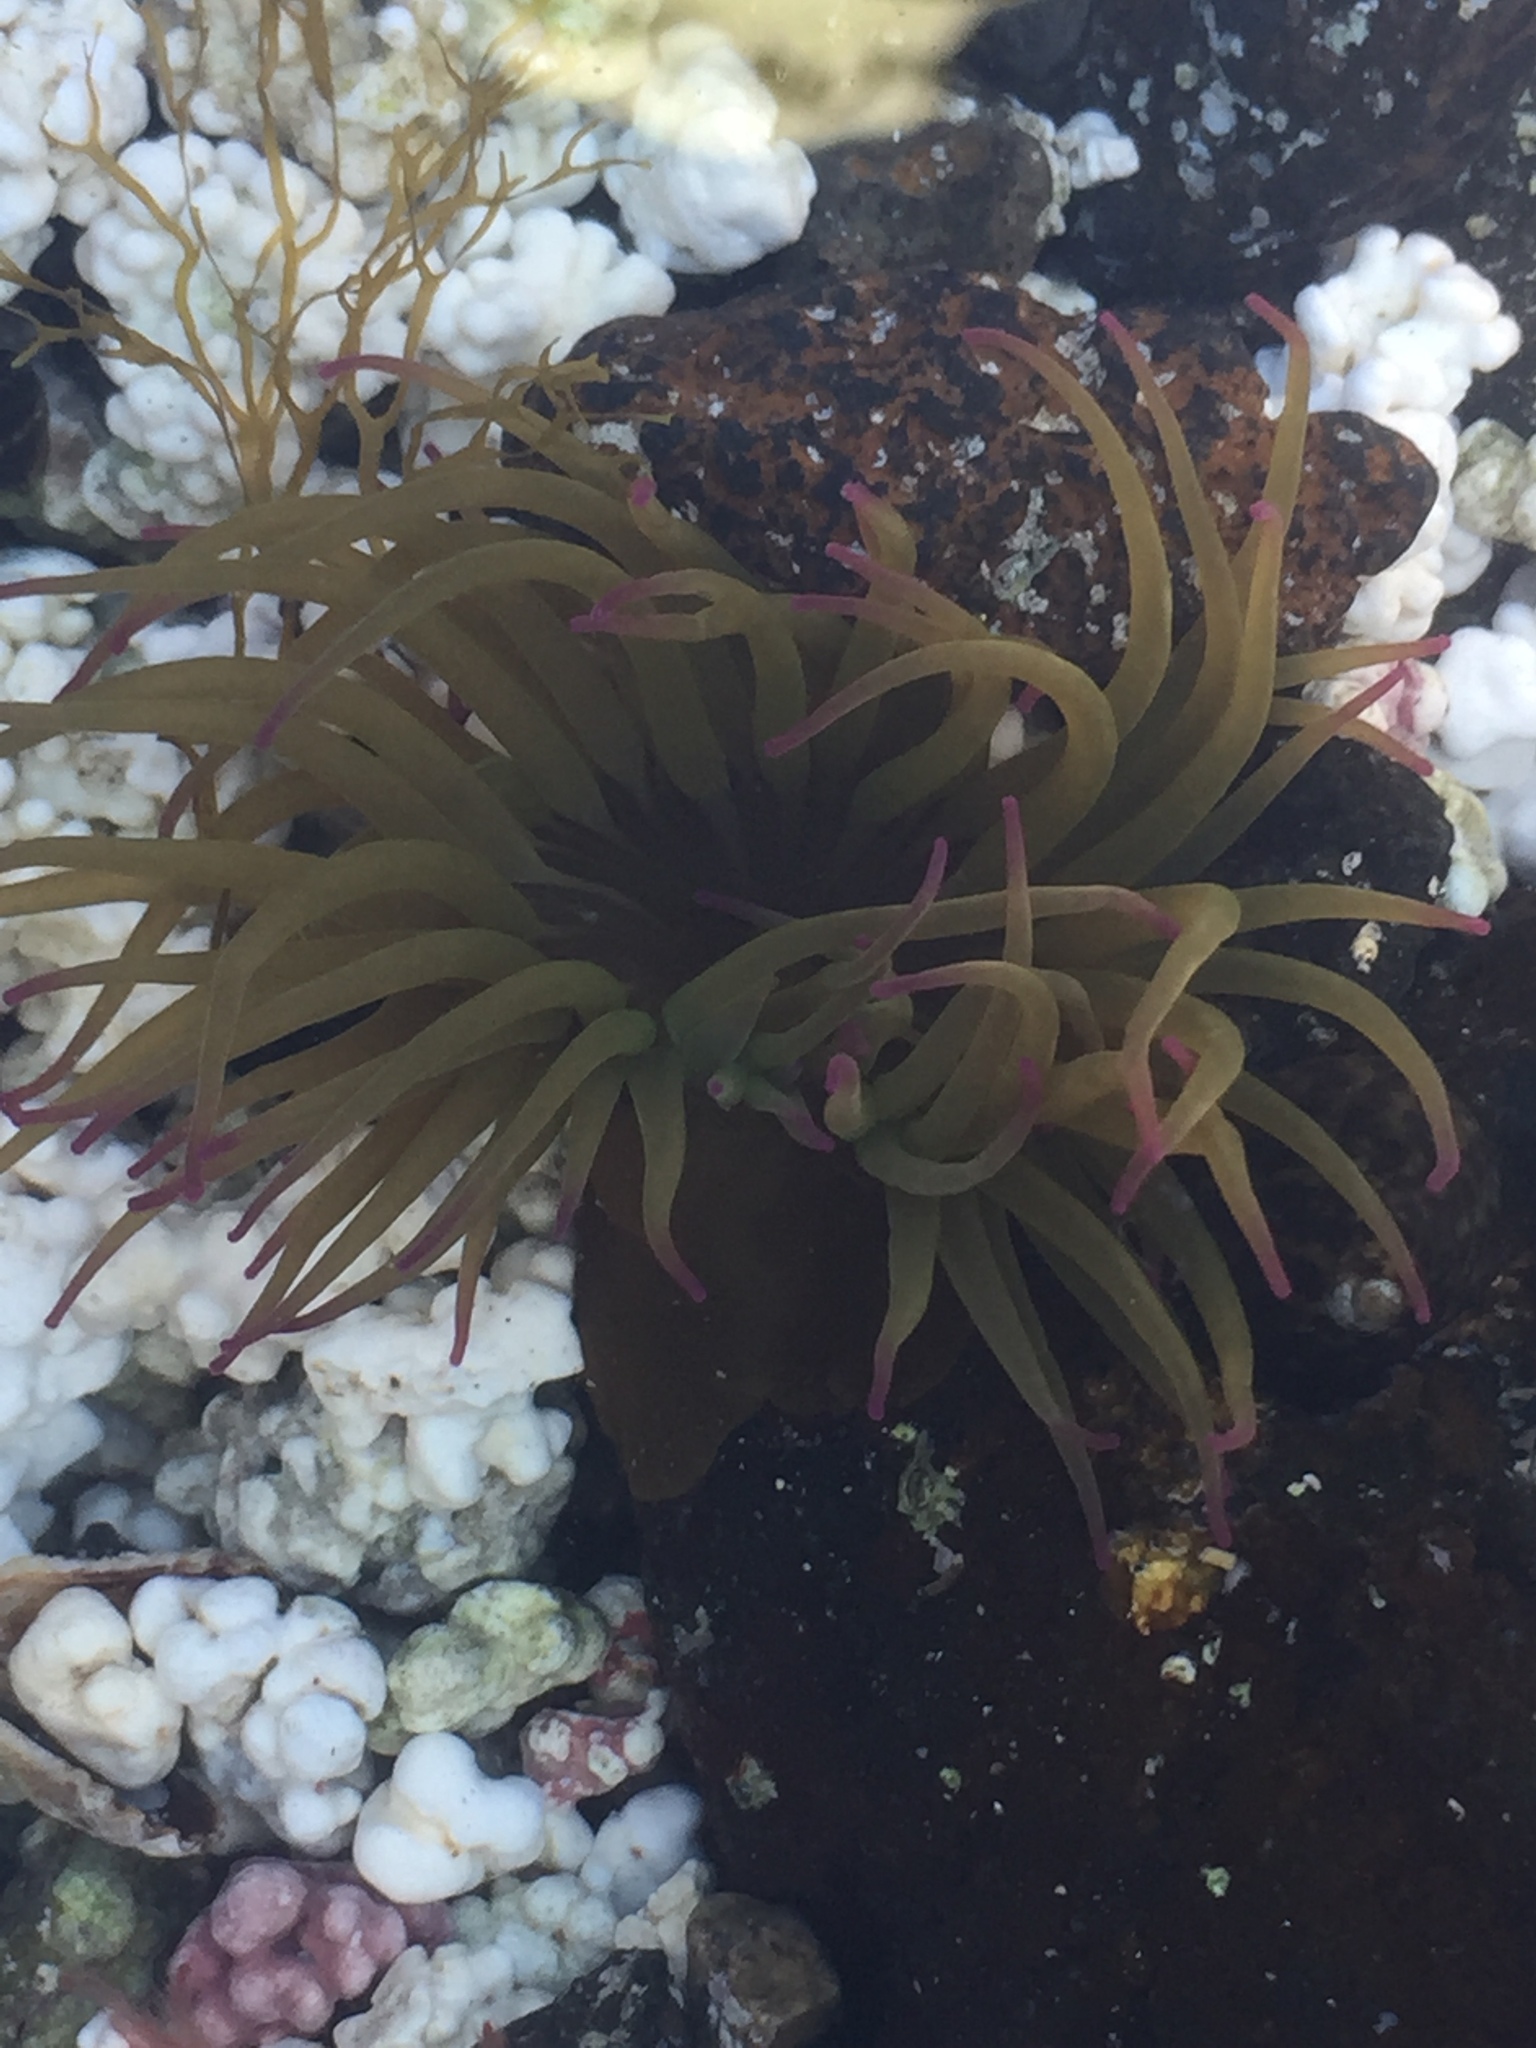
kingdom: Animalia
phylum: Cnidaria
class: Anthozoa
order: Actiniaria
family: Actiniidae
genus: Anemonia
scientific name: Anemonia viridis
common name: Snakelocks anemone
